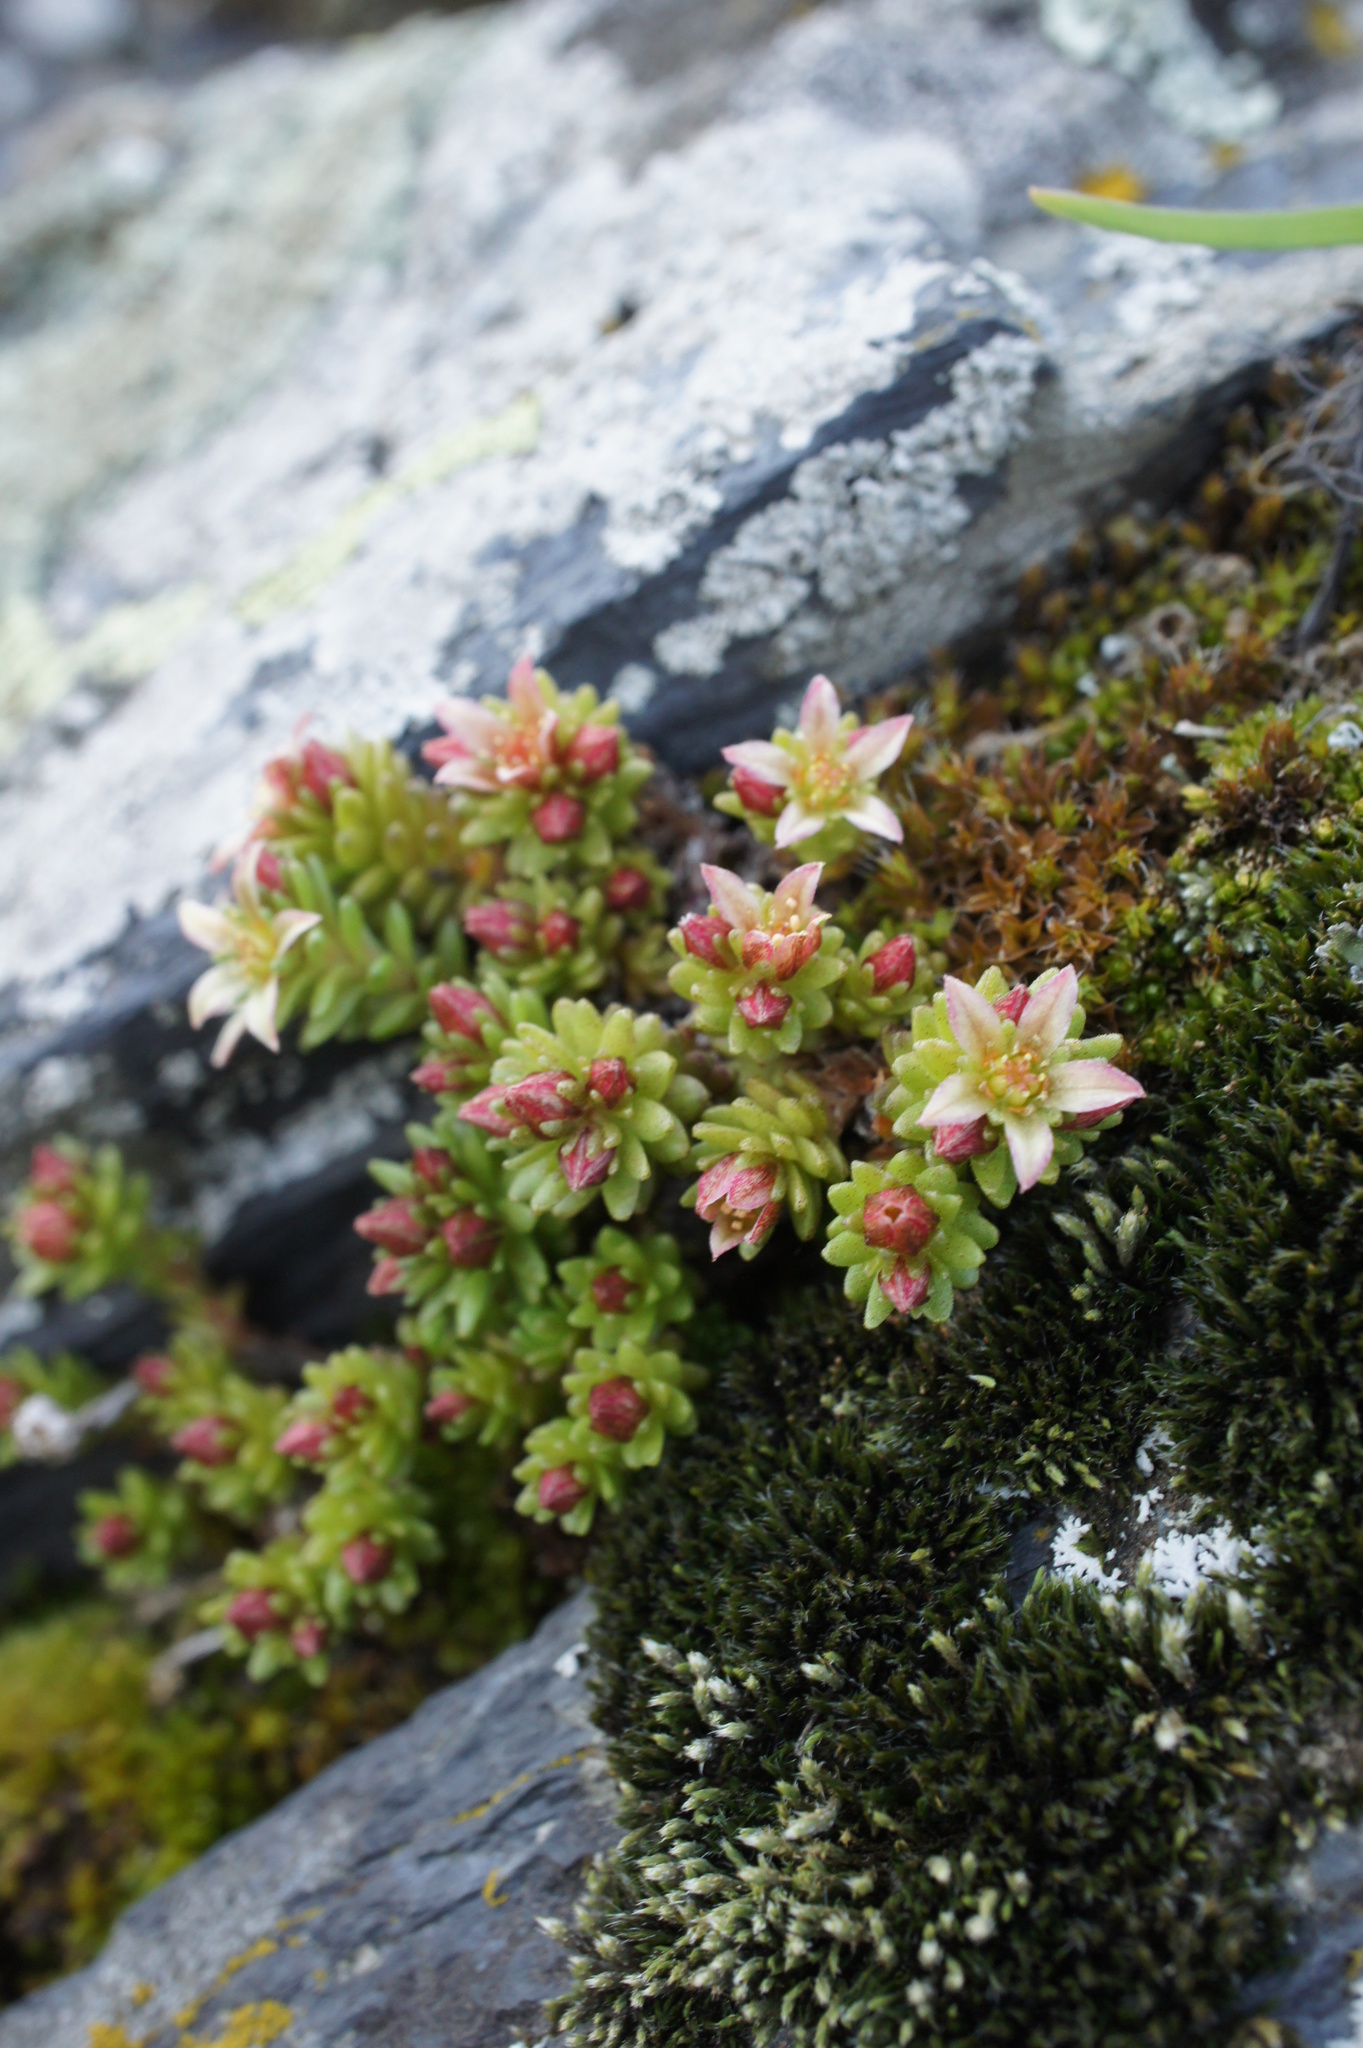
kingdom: Plantae
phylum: Tracheophyta
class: Magnoliopsida
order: Saxifragales
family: Crassulaceae
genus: Sedum
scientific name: Sedum tenellum
